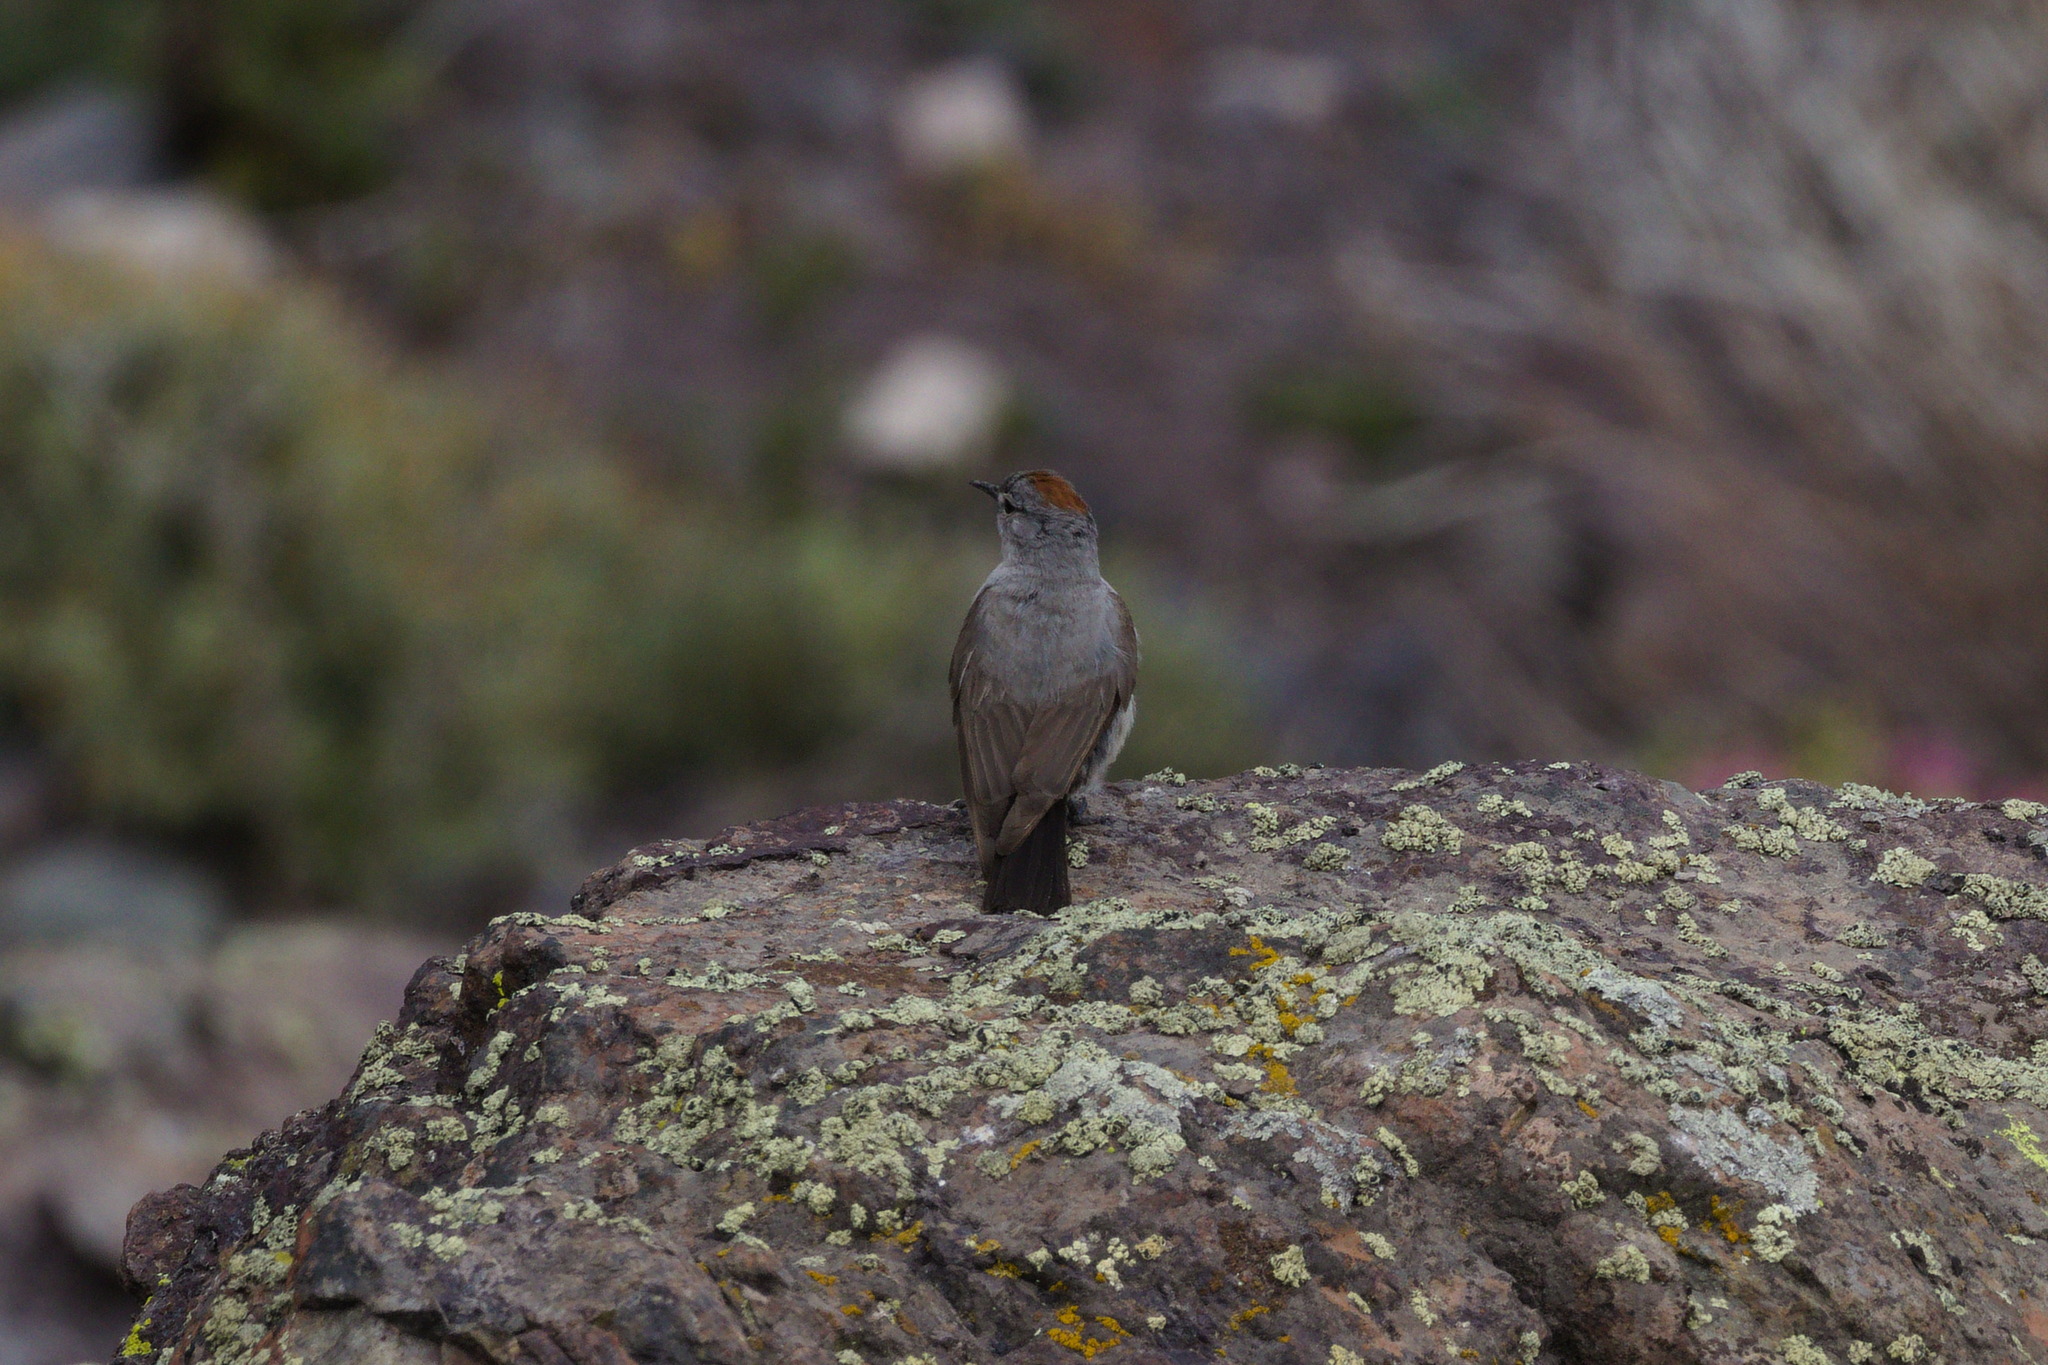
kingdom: Animalia
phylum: Chordata
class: Aves
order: Passeriformes
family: Tyrannidae
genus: Muscisaxicola
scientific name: Muscisaxicola rufivertex
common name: Rufous-naped ground tyrant
